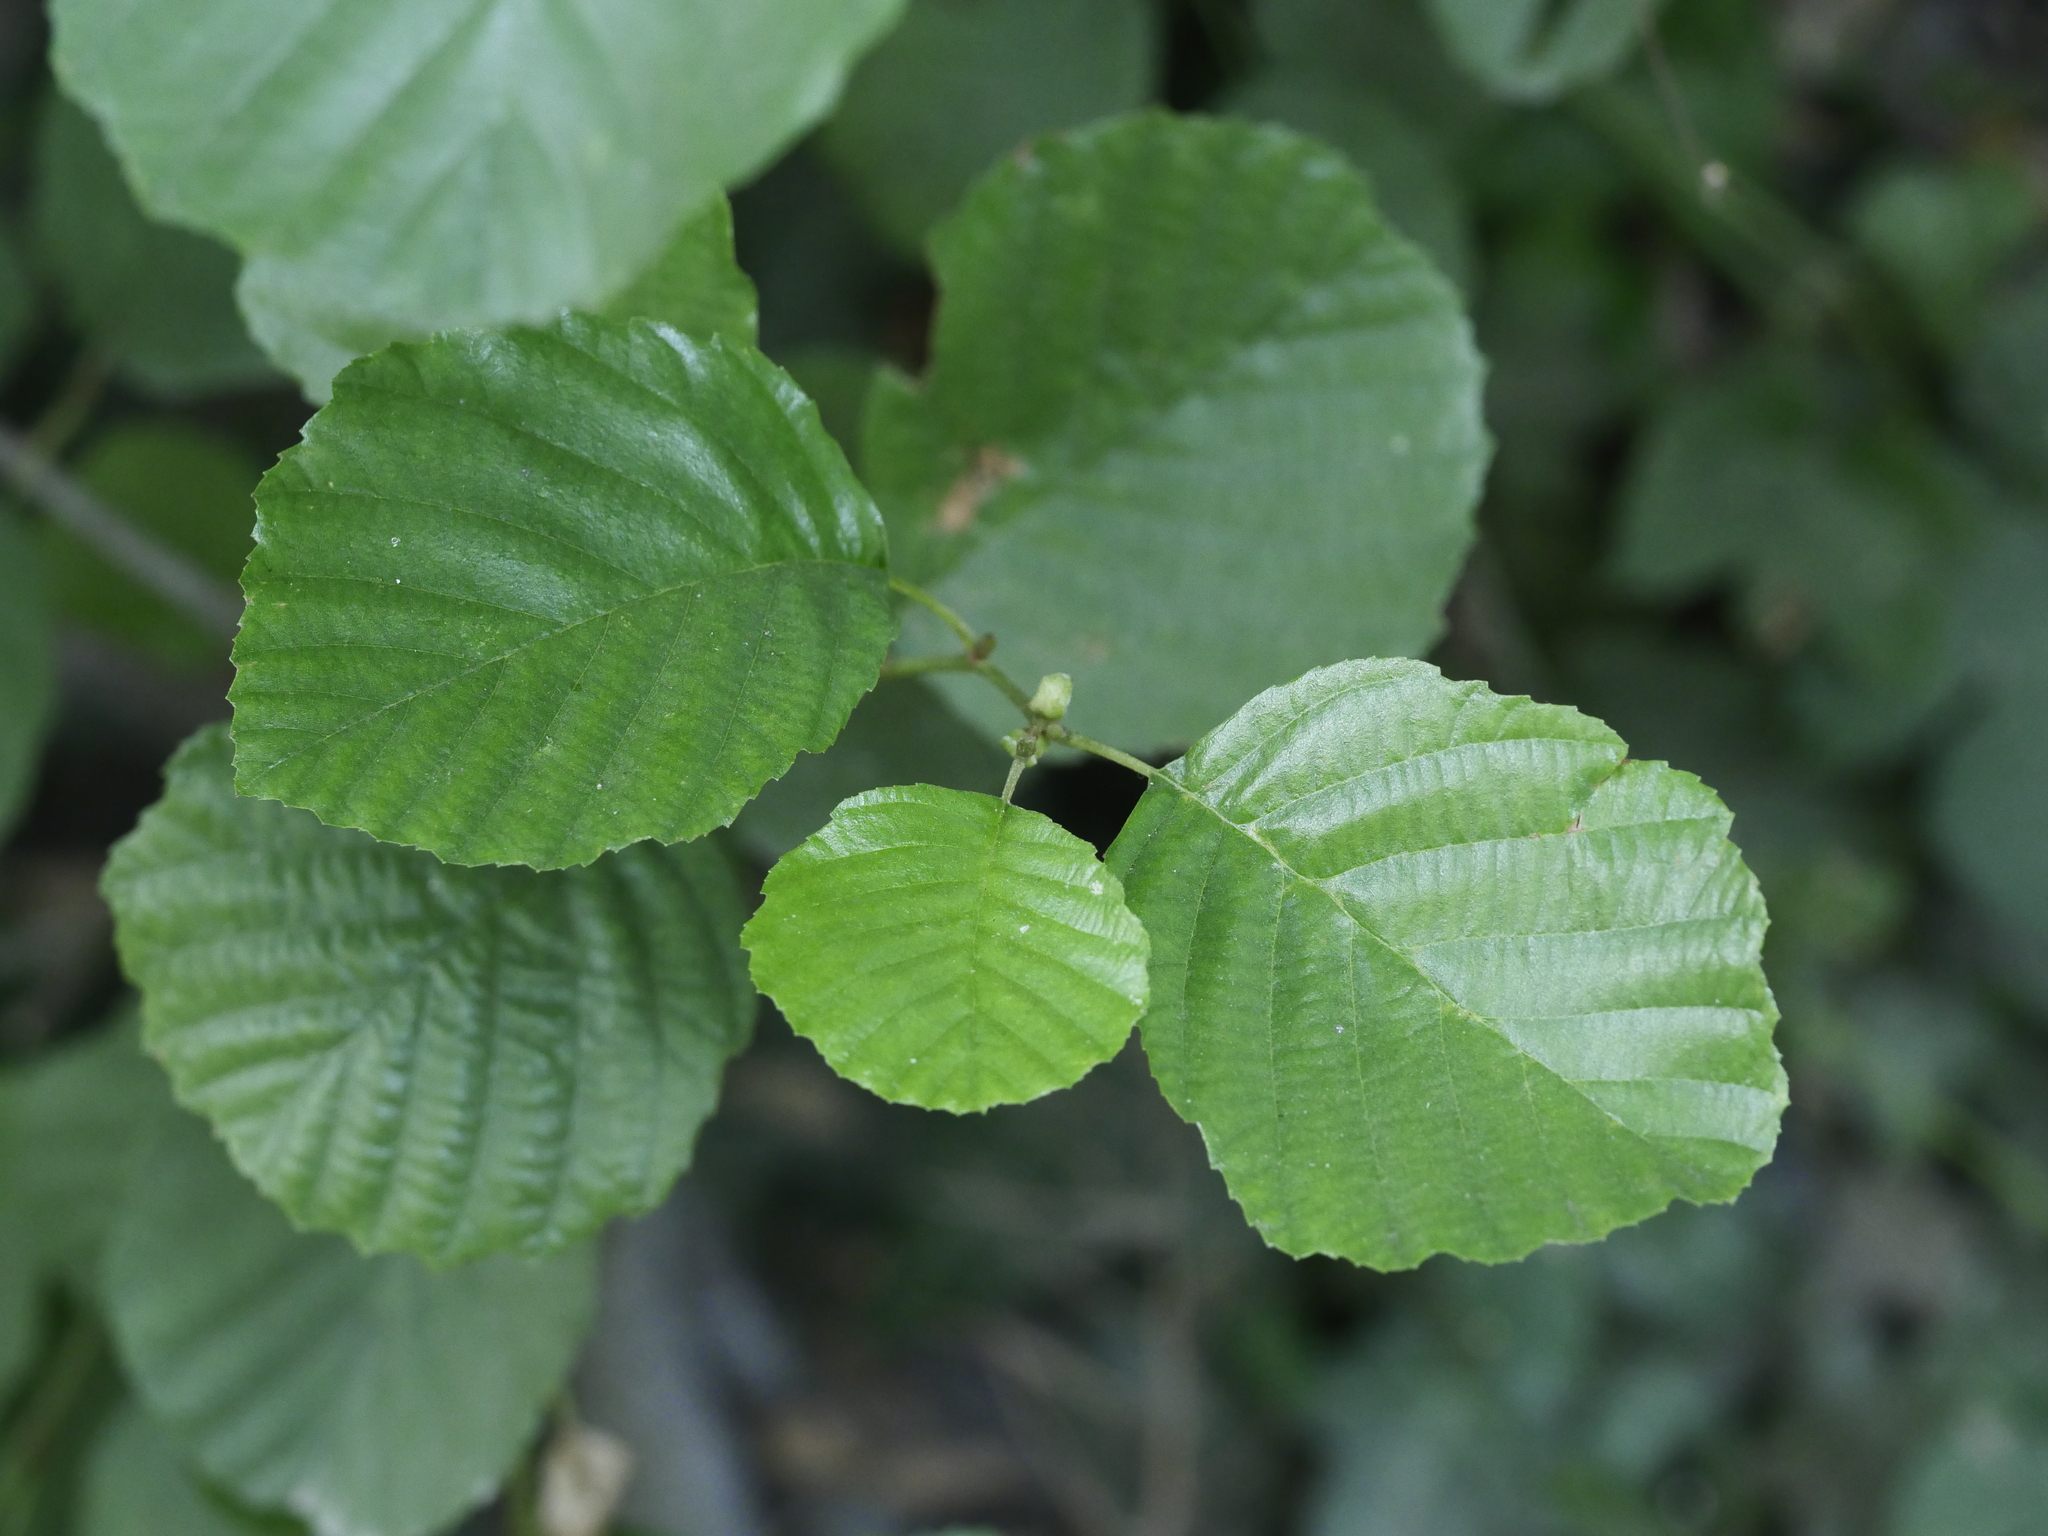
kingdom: Plantae
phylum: Tracheophyta
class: Magnoliopsida
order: Fagales
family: Betulaceae
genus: Alnus
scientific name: Alnus glutinosa
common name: Black alder
